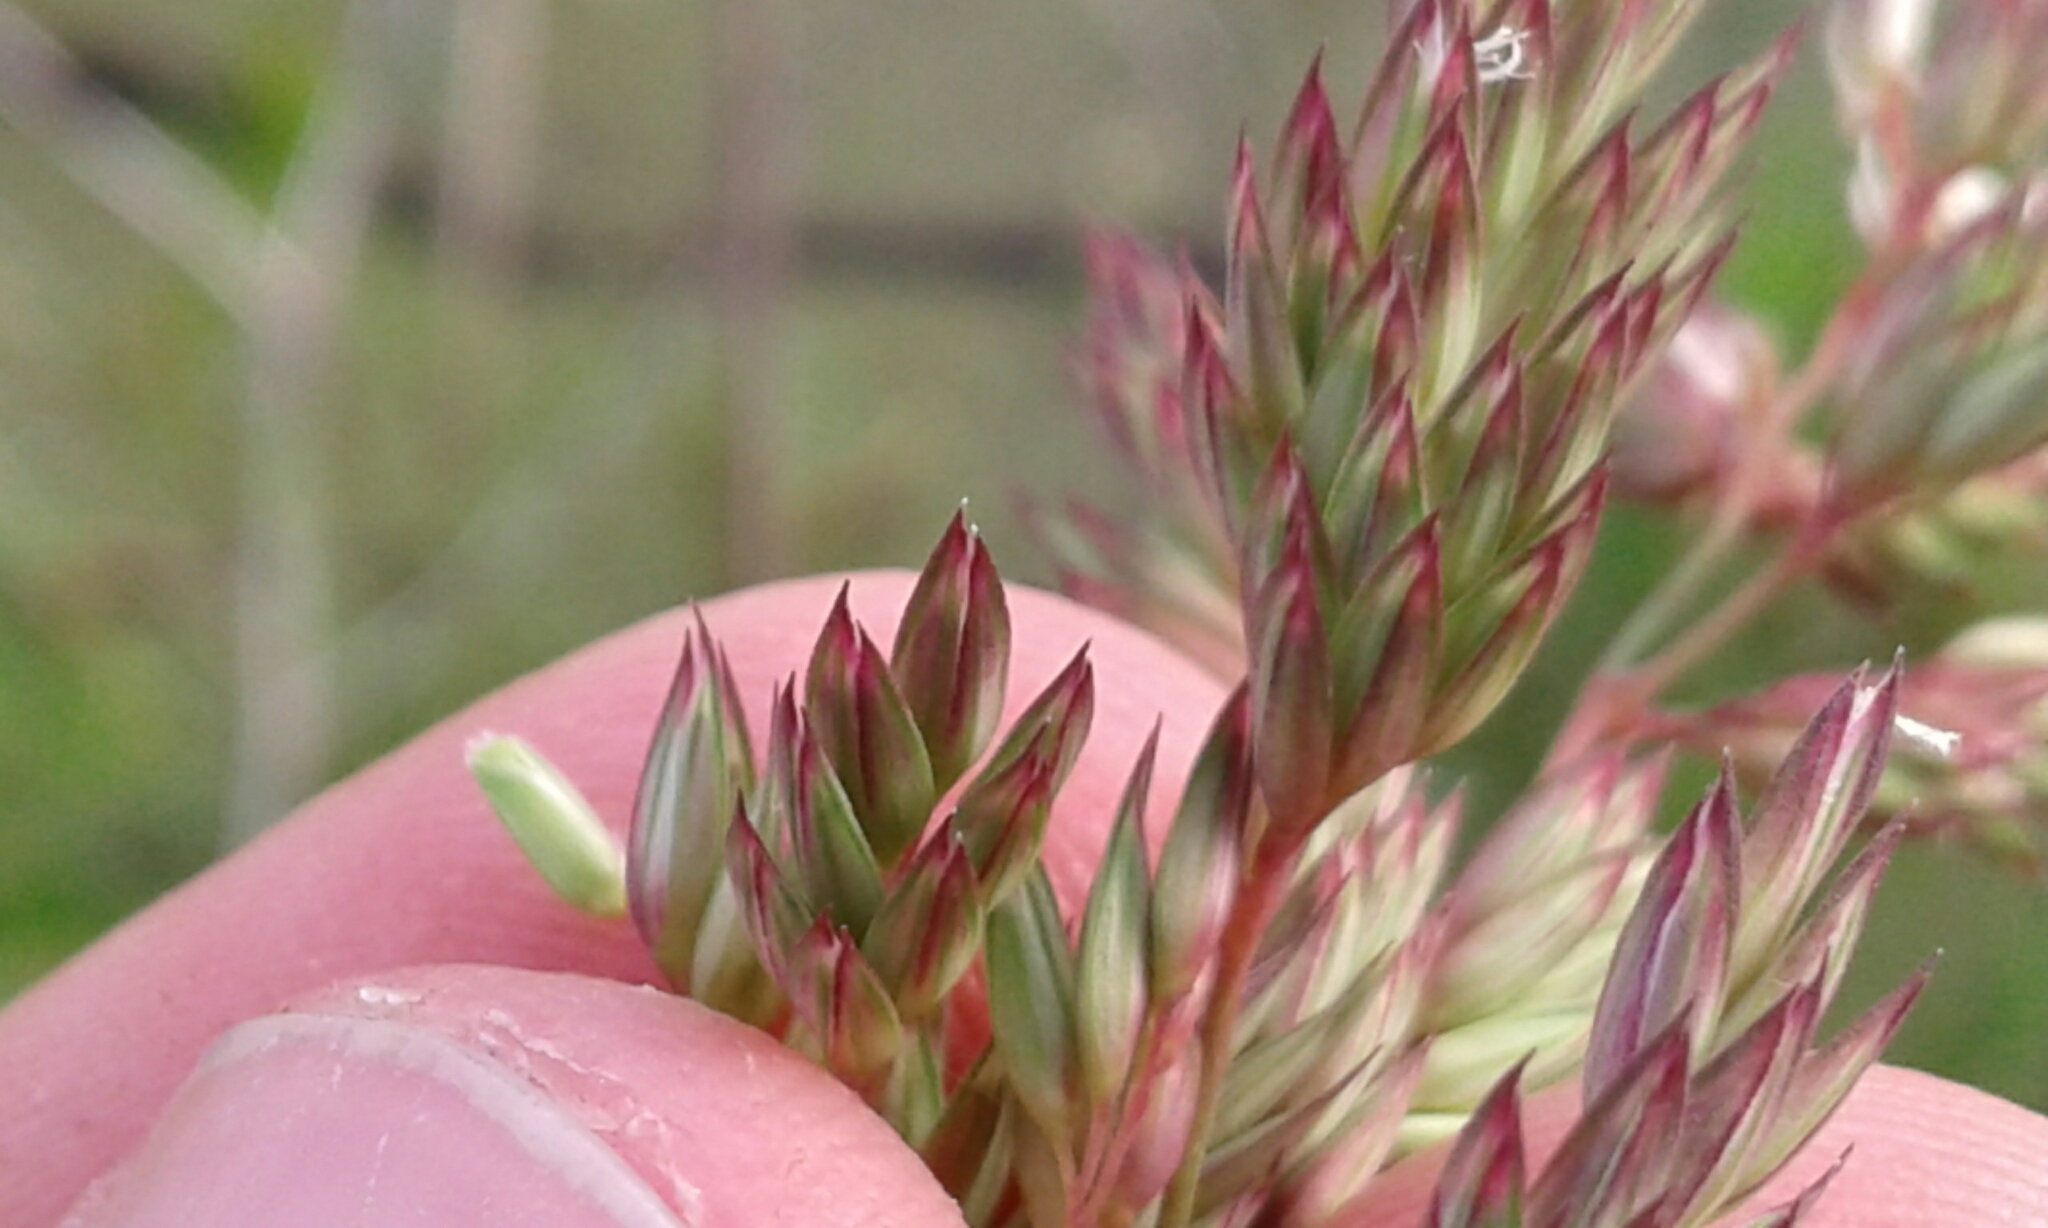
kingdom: Plantae
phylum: Tracheophyta
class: Liliopsida
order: Poales
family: Poaceae
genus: Phalaris
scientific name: Phalaris arundinacea
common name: Reed canary-grass
